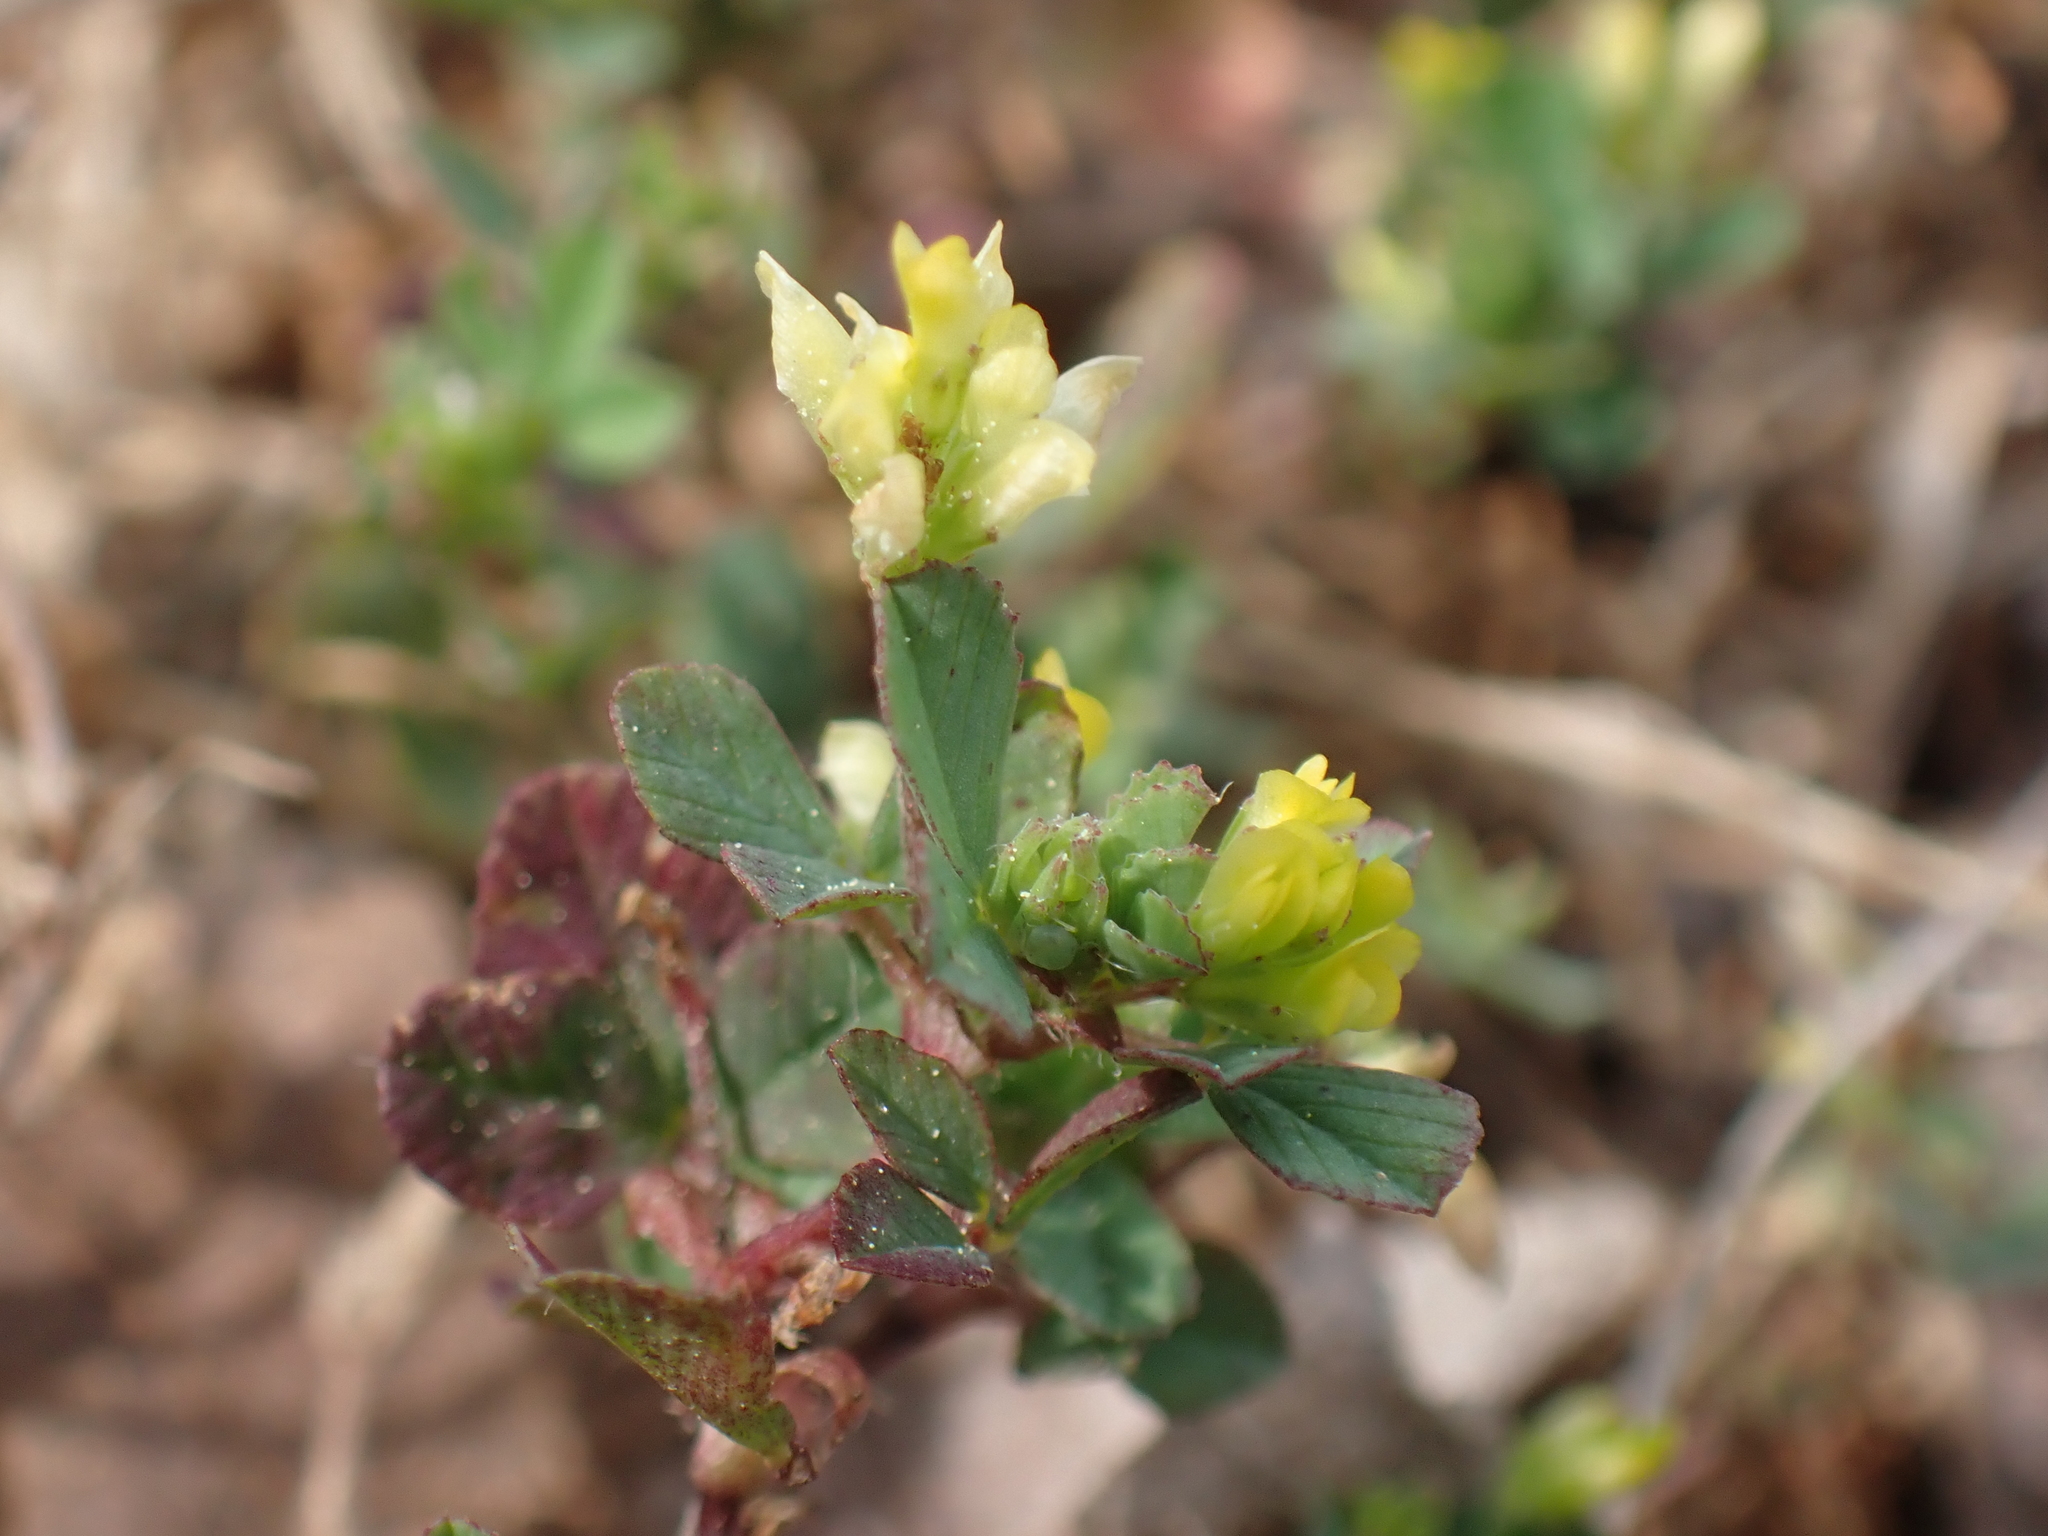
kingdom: Plantae
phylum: Tracheophyta
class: Magnoliopsida
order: Fabales
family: Fabaceae
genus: Trifolium
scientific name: Trifolium dubium
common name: Suckling clover
